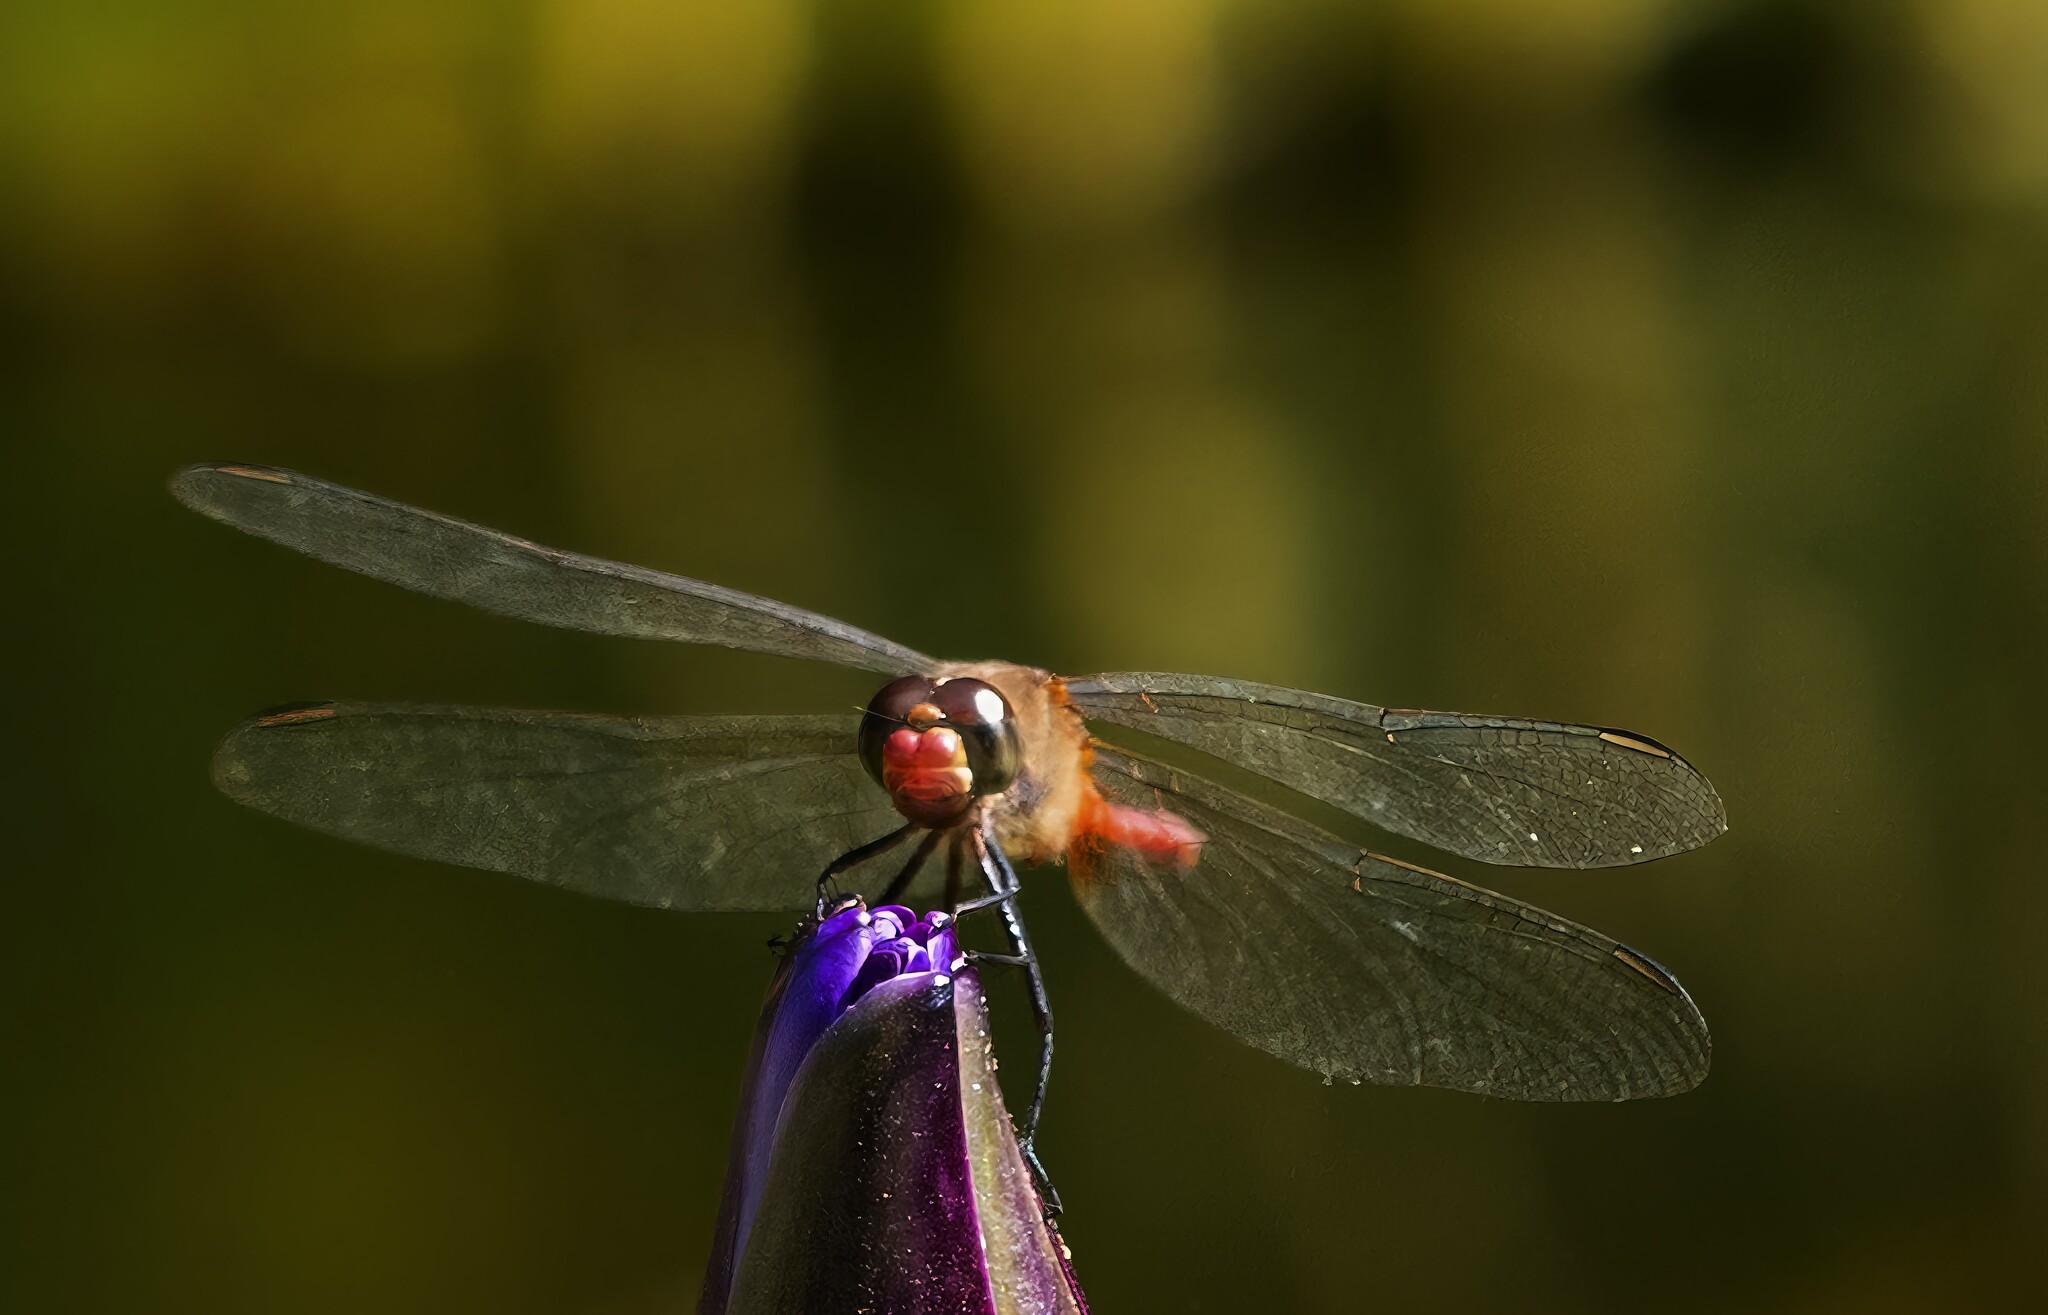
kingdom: Animalia
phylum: Arthropoda
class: Insecta
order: Odonata
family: Libellulidae
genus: Brachymesia
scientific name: Brachymesia furcata
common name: Red-taled pennant
